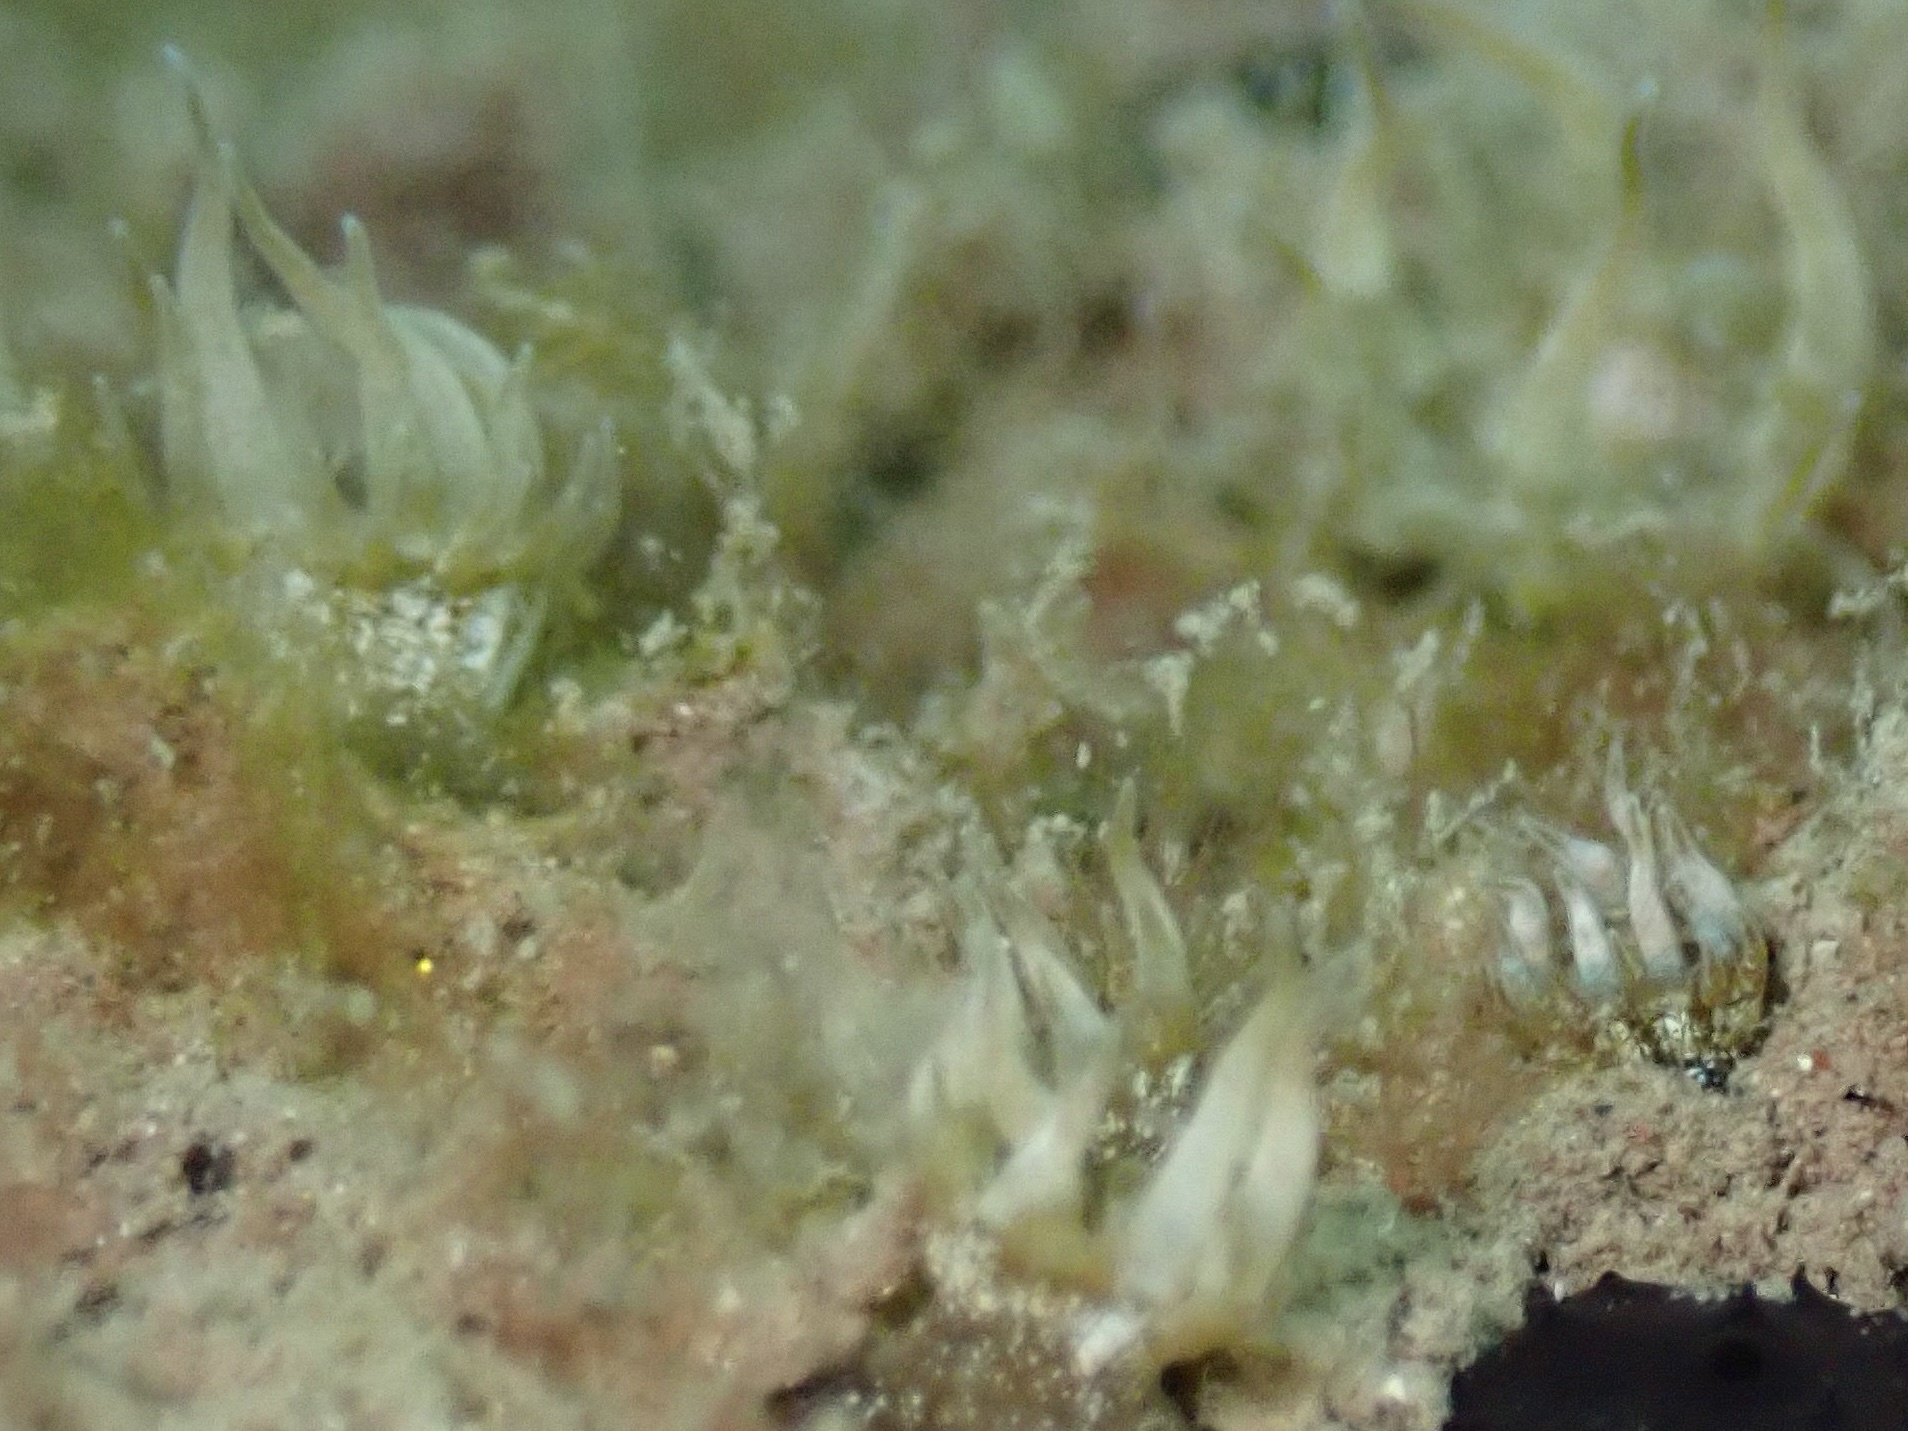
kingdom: Animalia
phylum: Cnidaria
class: Anthozoa
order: Actiniaria
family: Aiptasiidae
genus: Exaiptasia
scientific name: Exaiptasia diaphana
